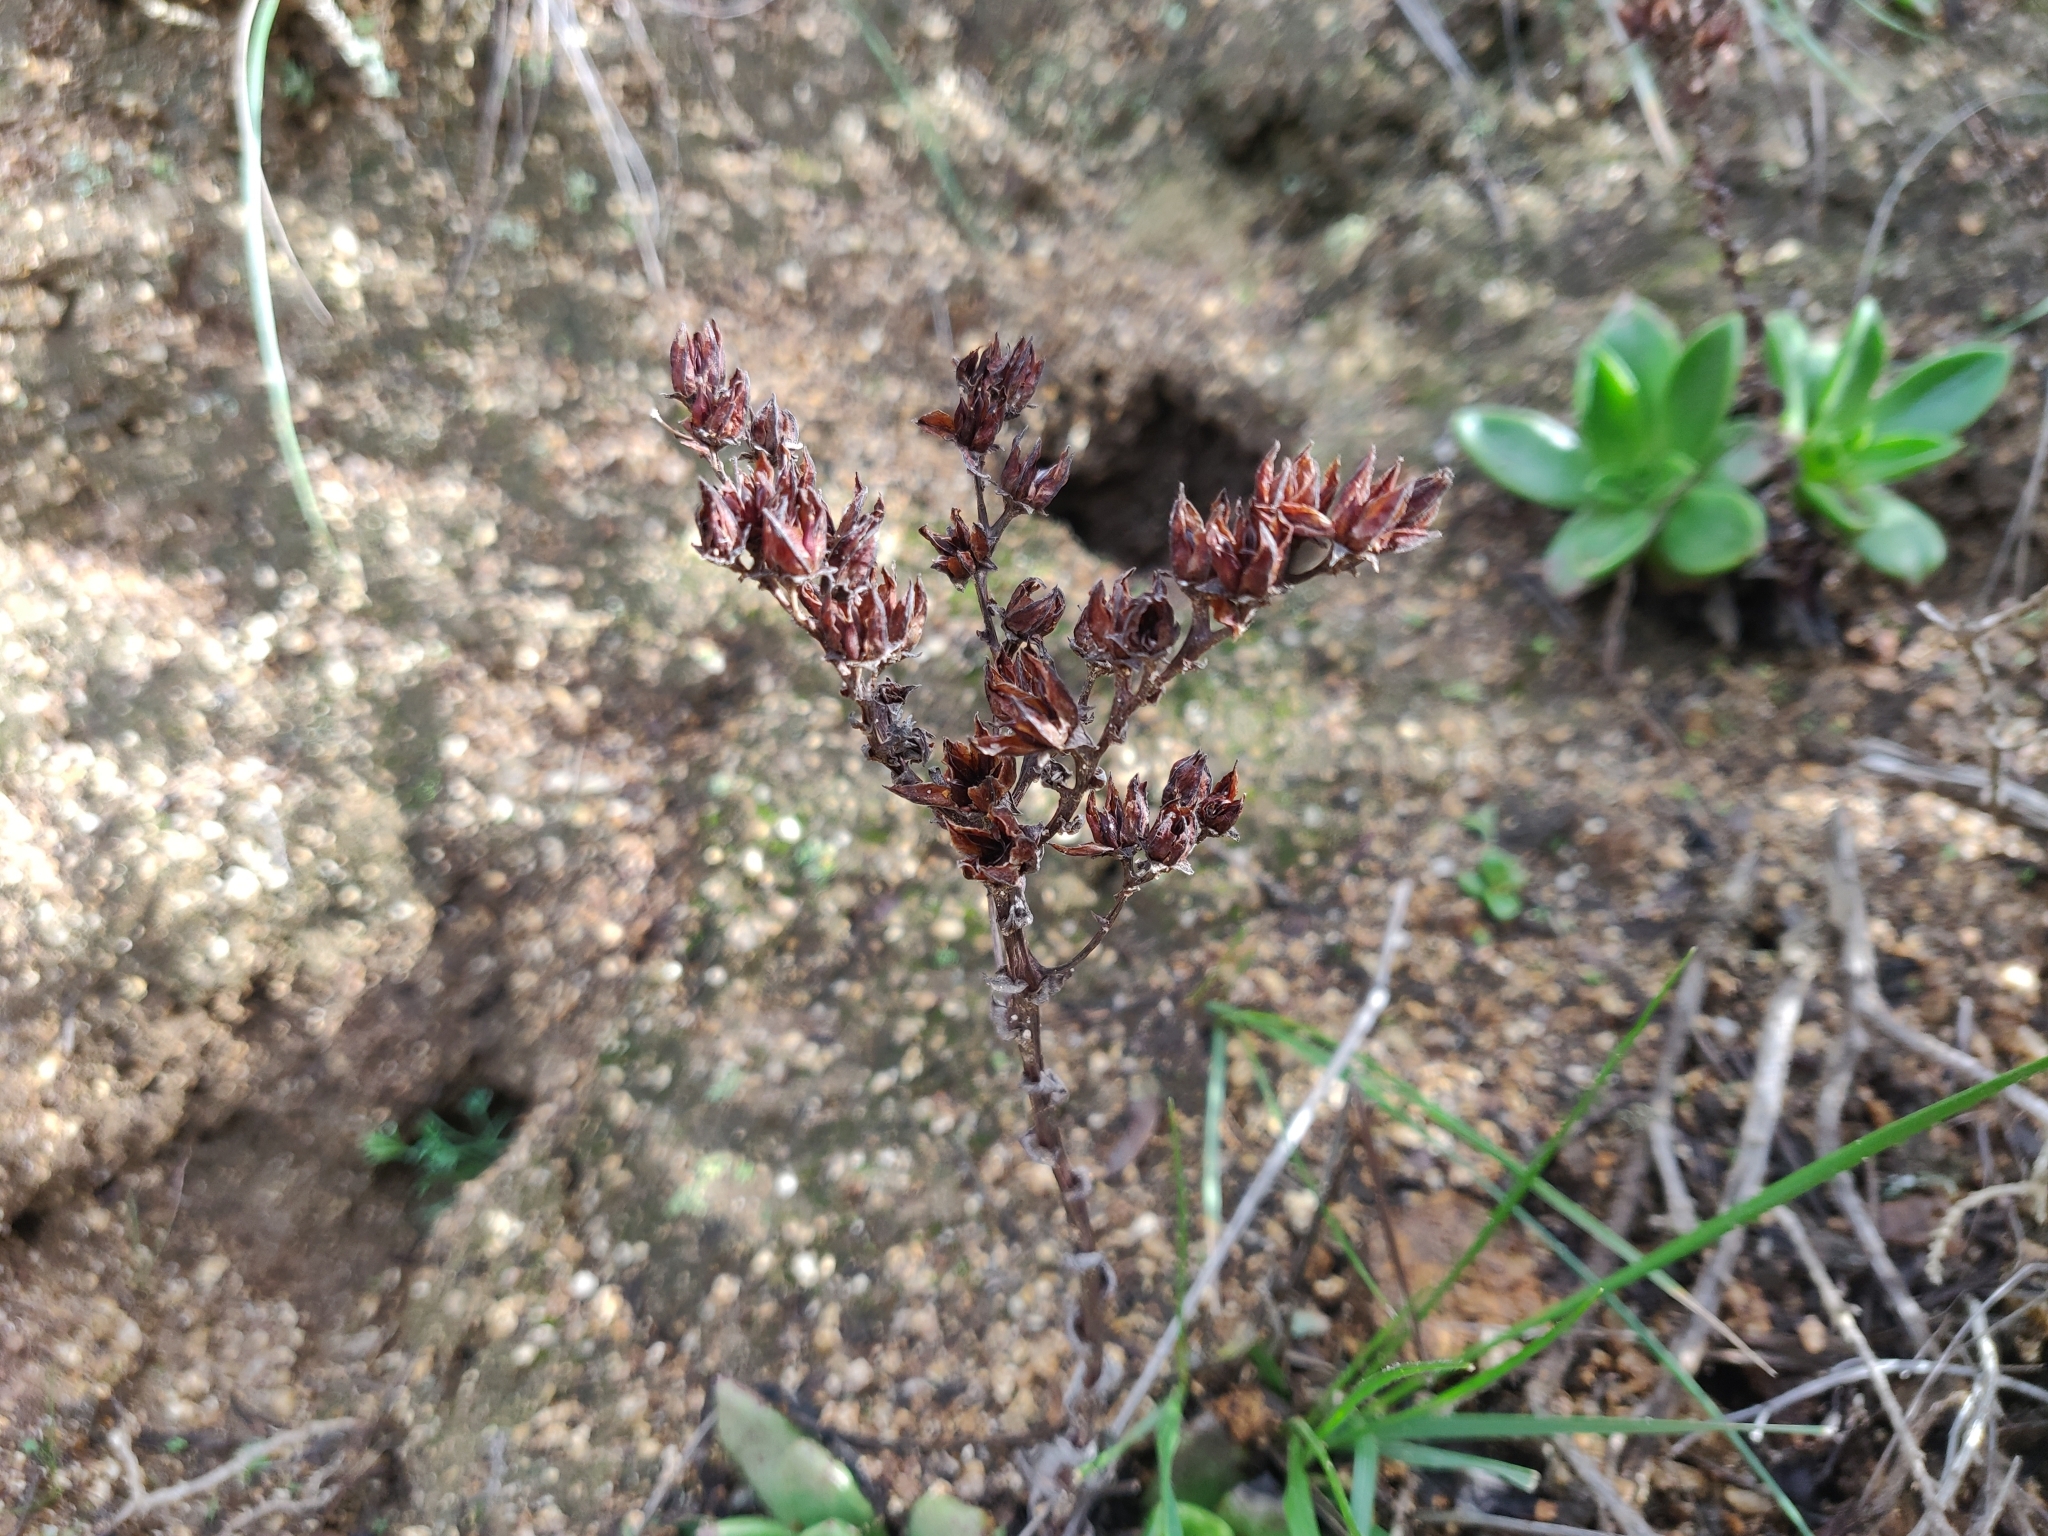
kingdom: Plantae
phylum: Tracheophyta
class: Magnoliopsida
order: Saxifragales
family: Crassulaceae
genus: Dudleya
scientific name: Dudleya farinosa
